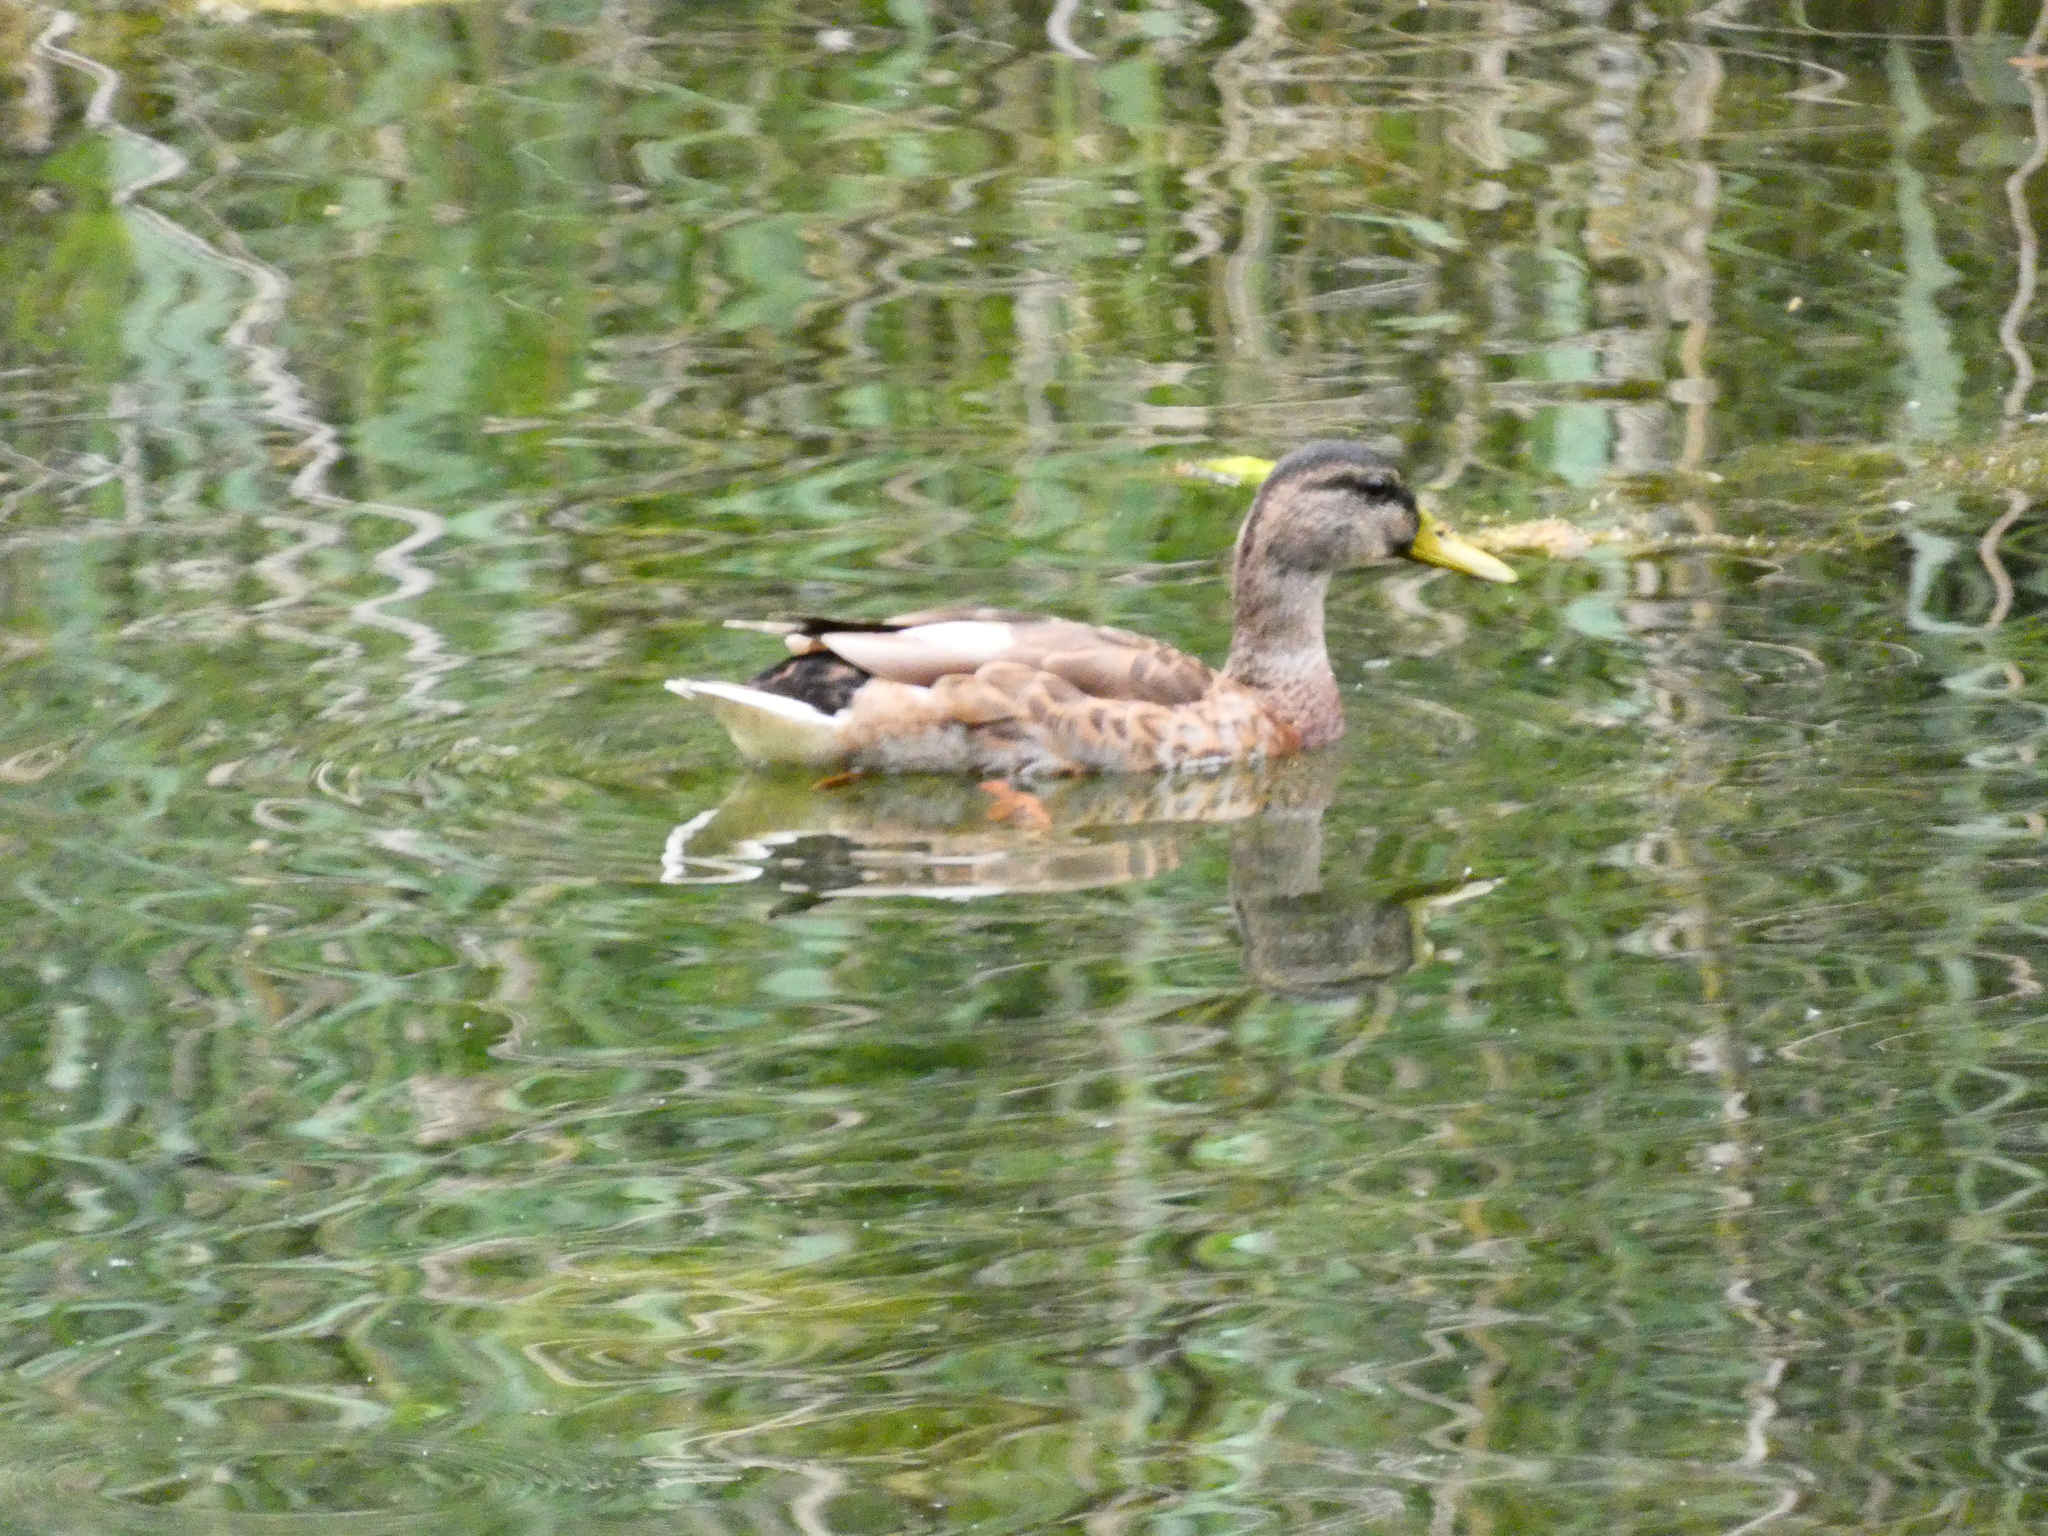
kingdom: Animalia
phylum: Chordata
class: Aves
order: Anseriformes
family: Anatidae
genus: Anas
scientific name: Anas platyrhynchos
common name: Mallard
